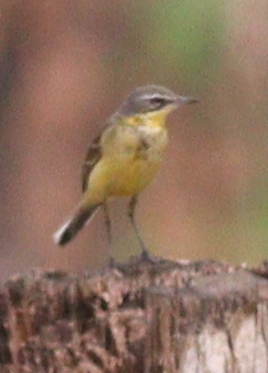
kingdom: Animalia
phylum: Chordata
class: Aves
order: Passeriformes
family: Motacillidae
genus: Motacilla
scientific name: Motacilla flava
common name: Western yellow wagtail
